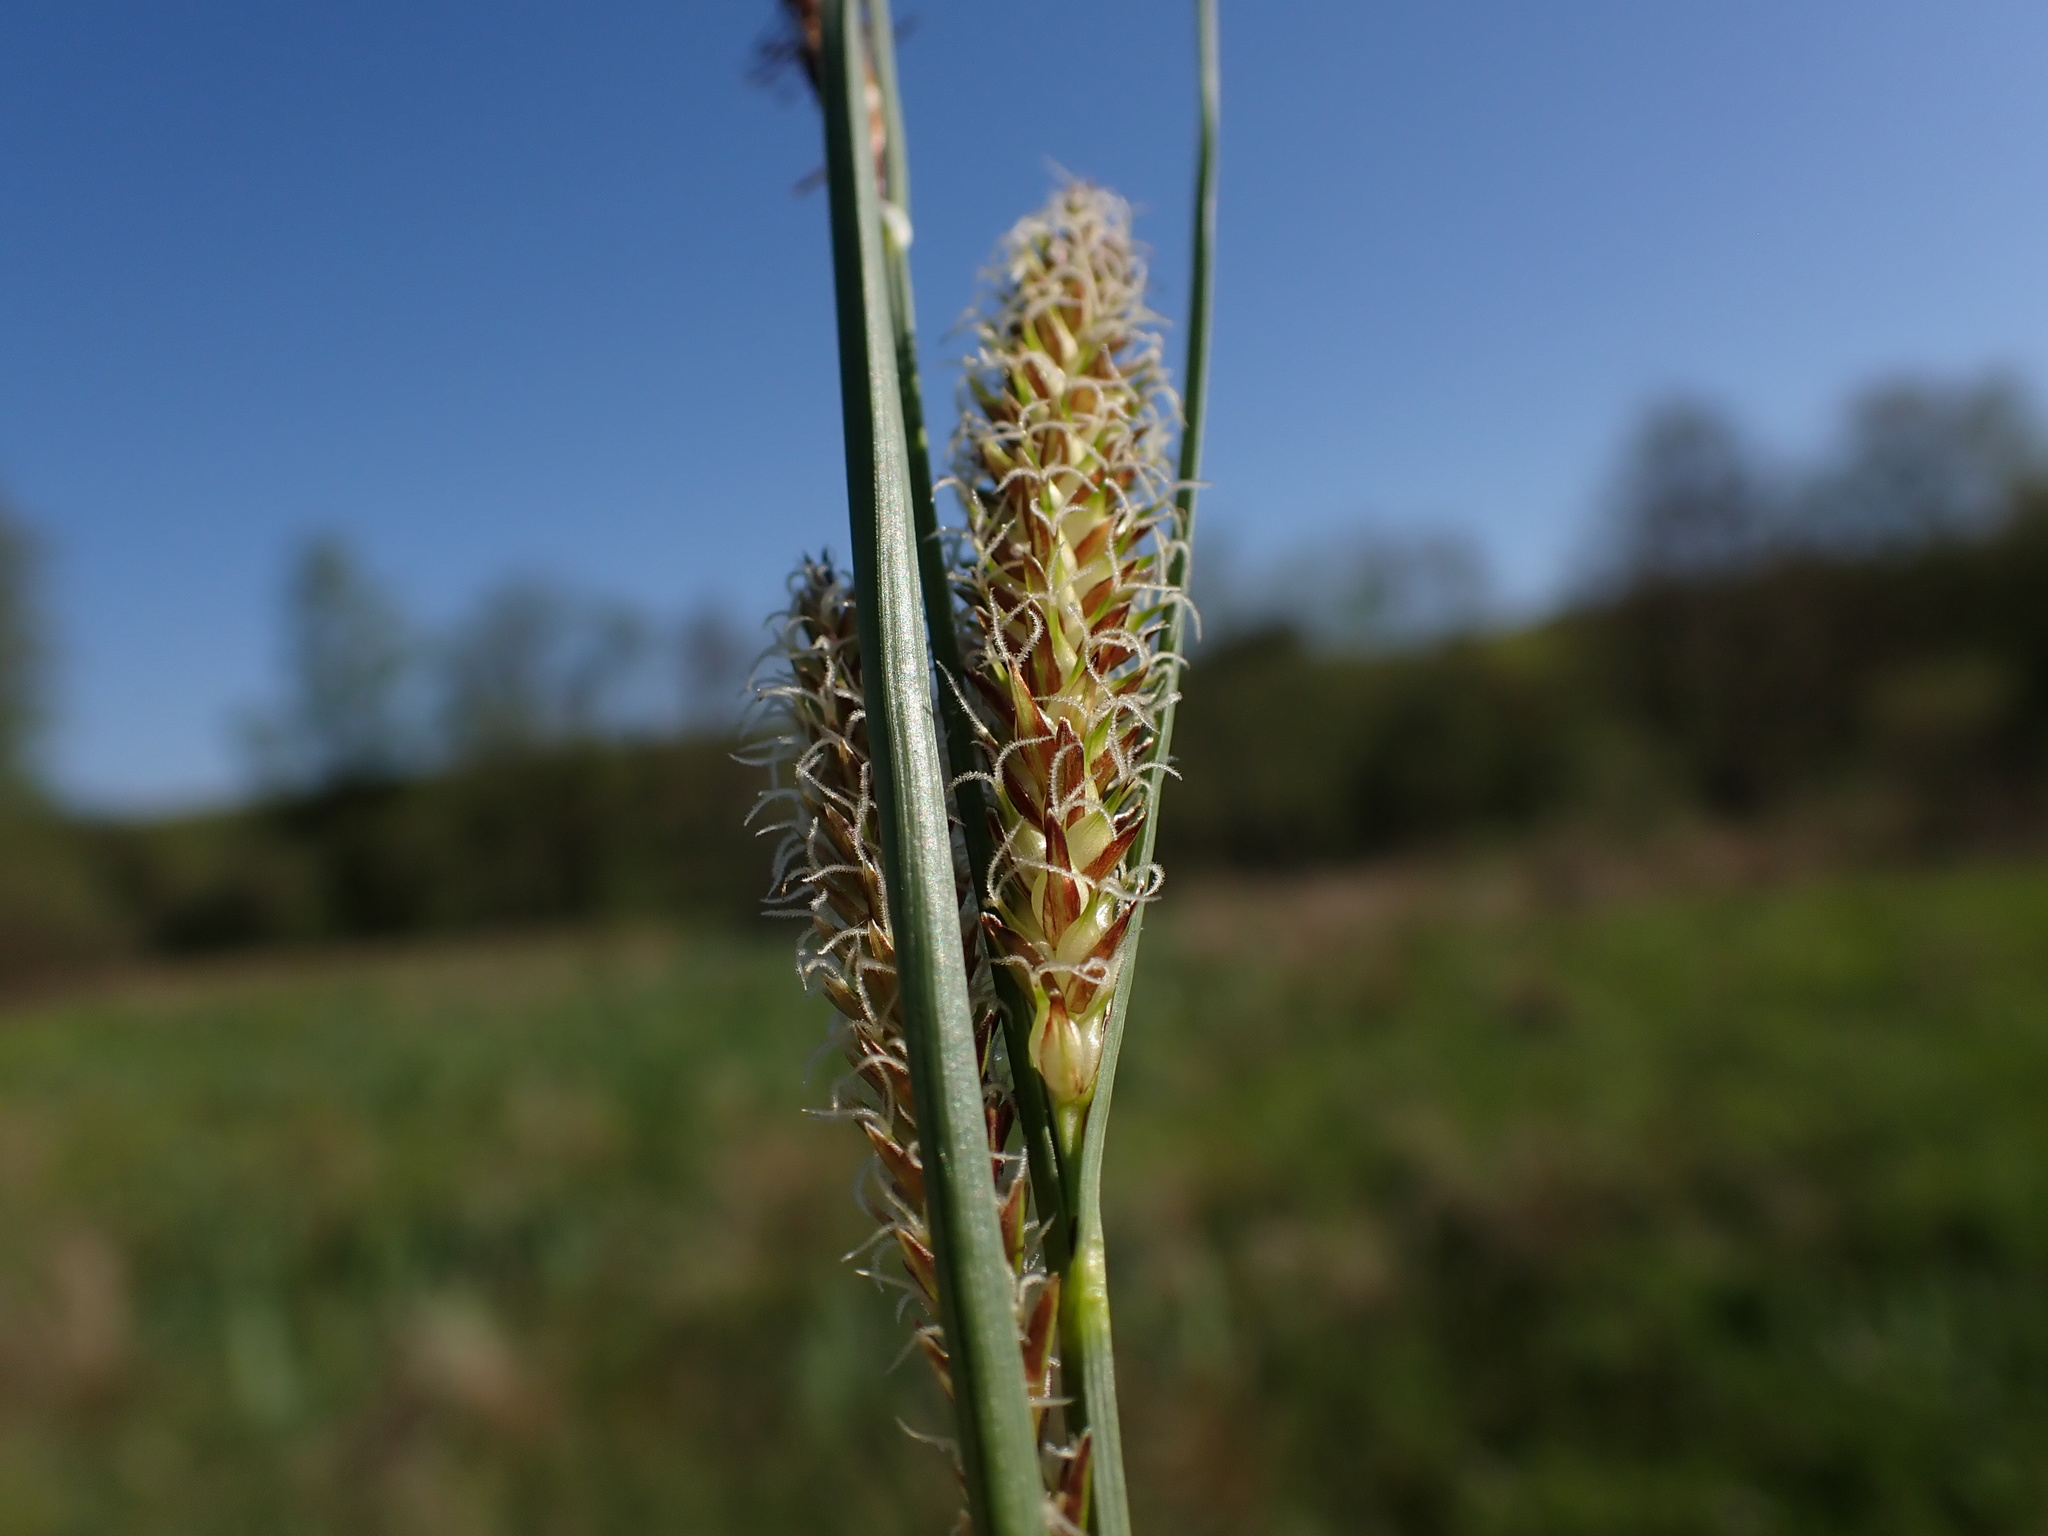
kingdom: Plantae
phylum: Tracheophyta
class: Liliopsida
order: Poales
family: Cyperaceae
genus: Carex
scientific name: Carex rostrata
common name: Bottle sedge
